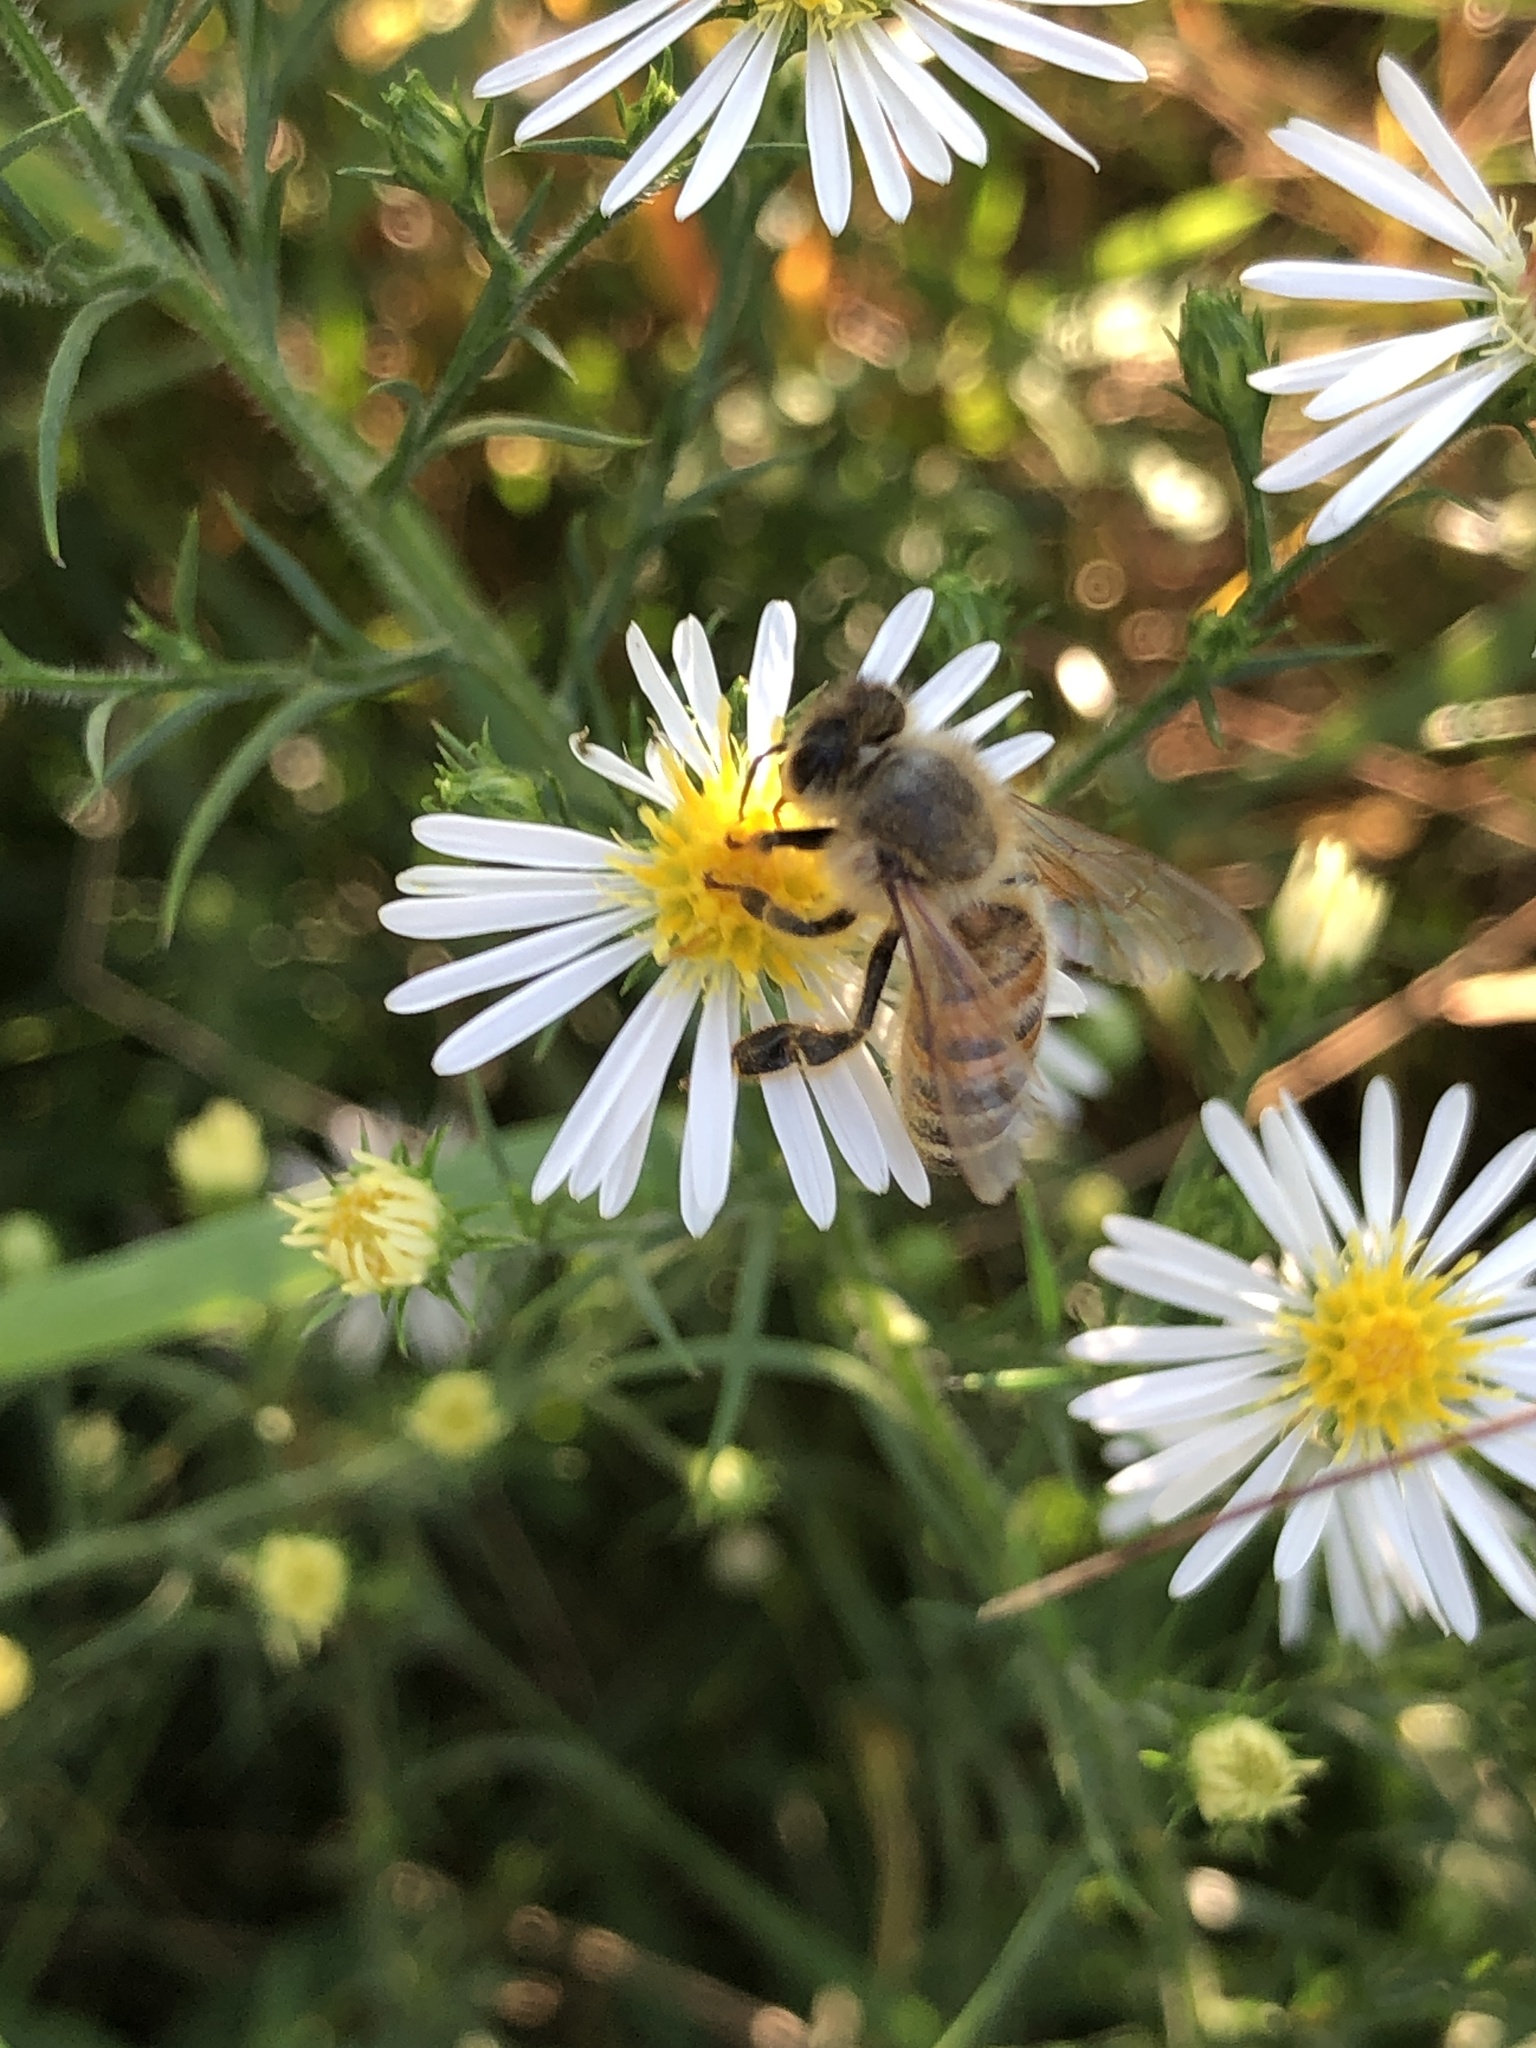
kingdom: Animalia
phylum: Arthropoda
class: Insecta
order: Hymenoptera
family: Apidae
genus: Apis
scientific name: Apis mellifera
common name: Honey bee
